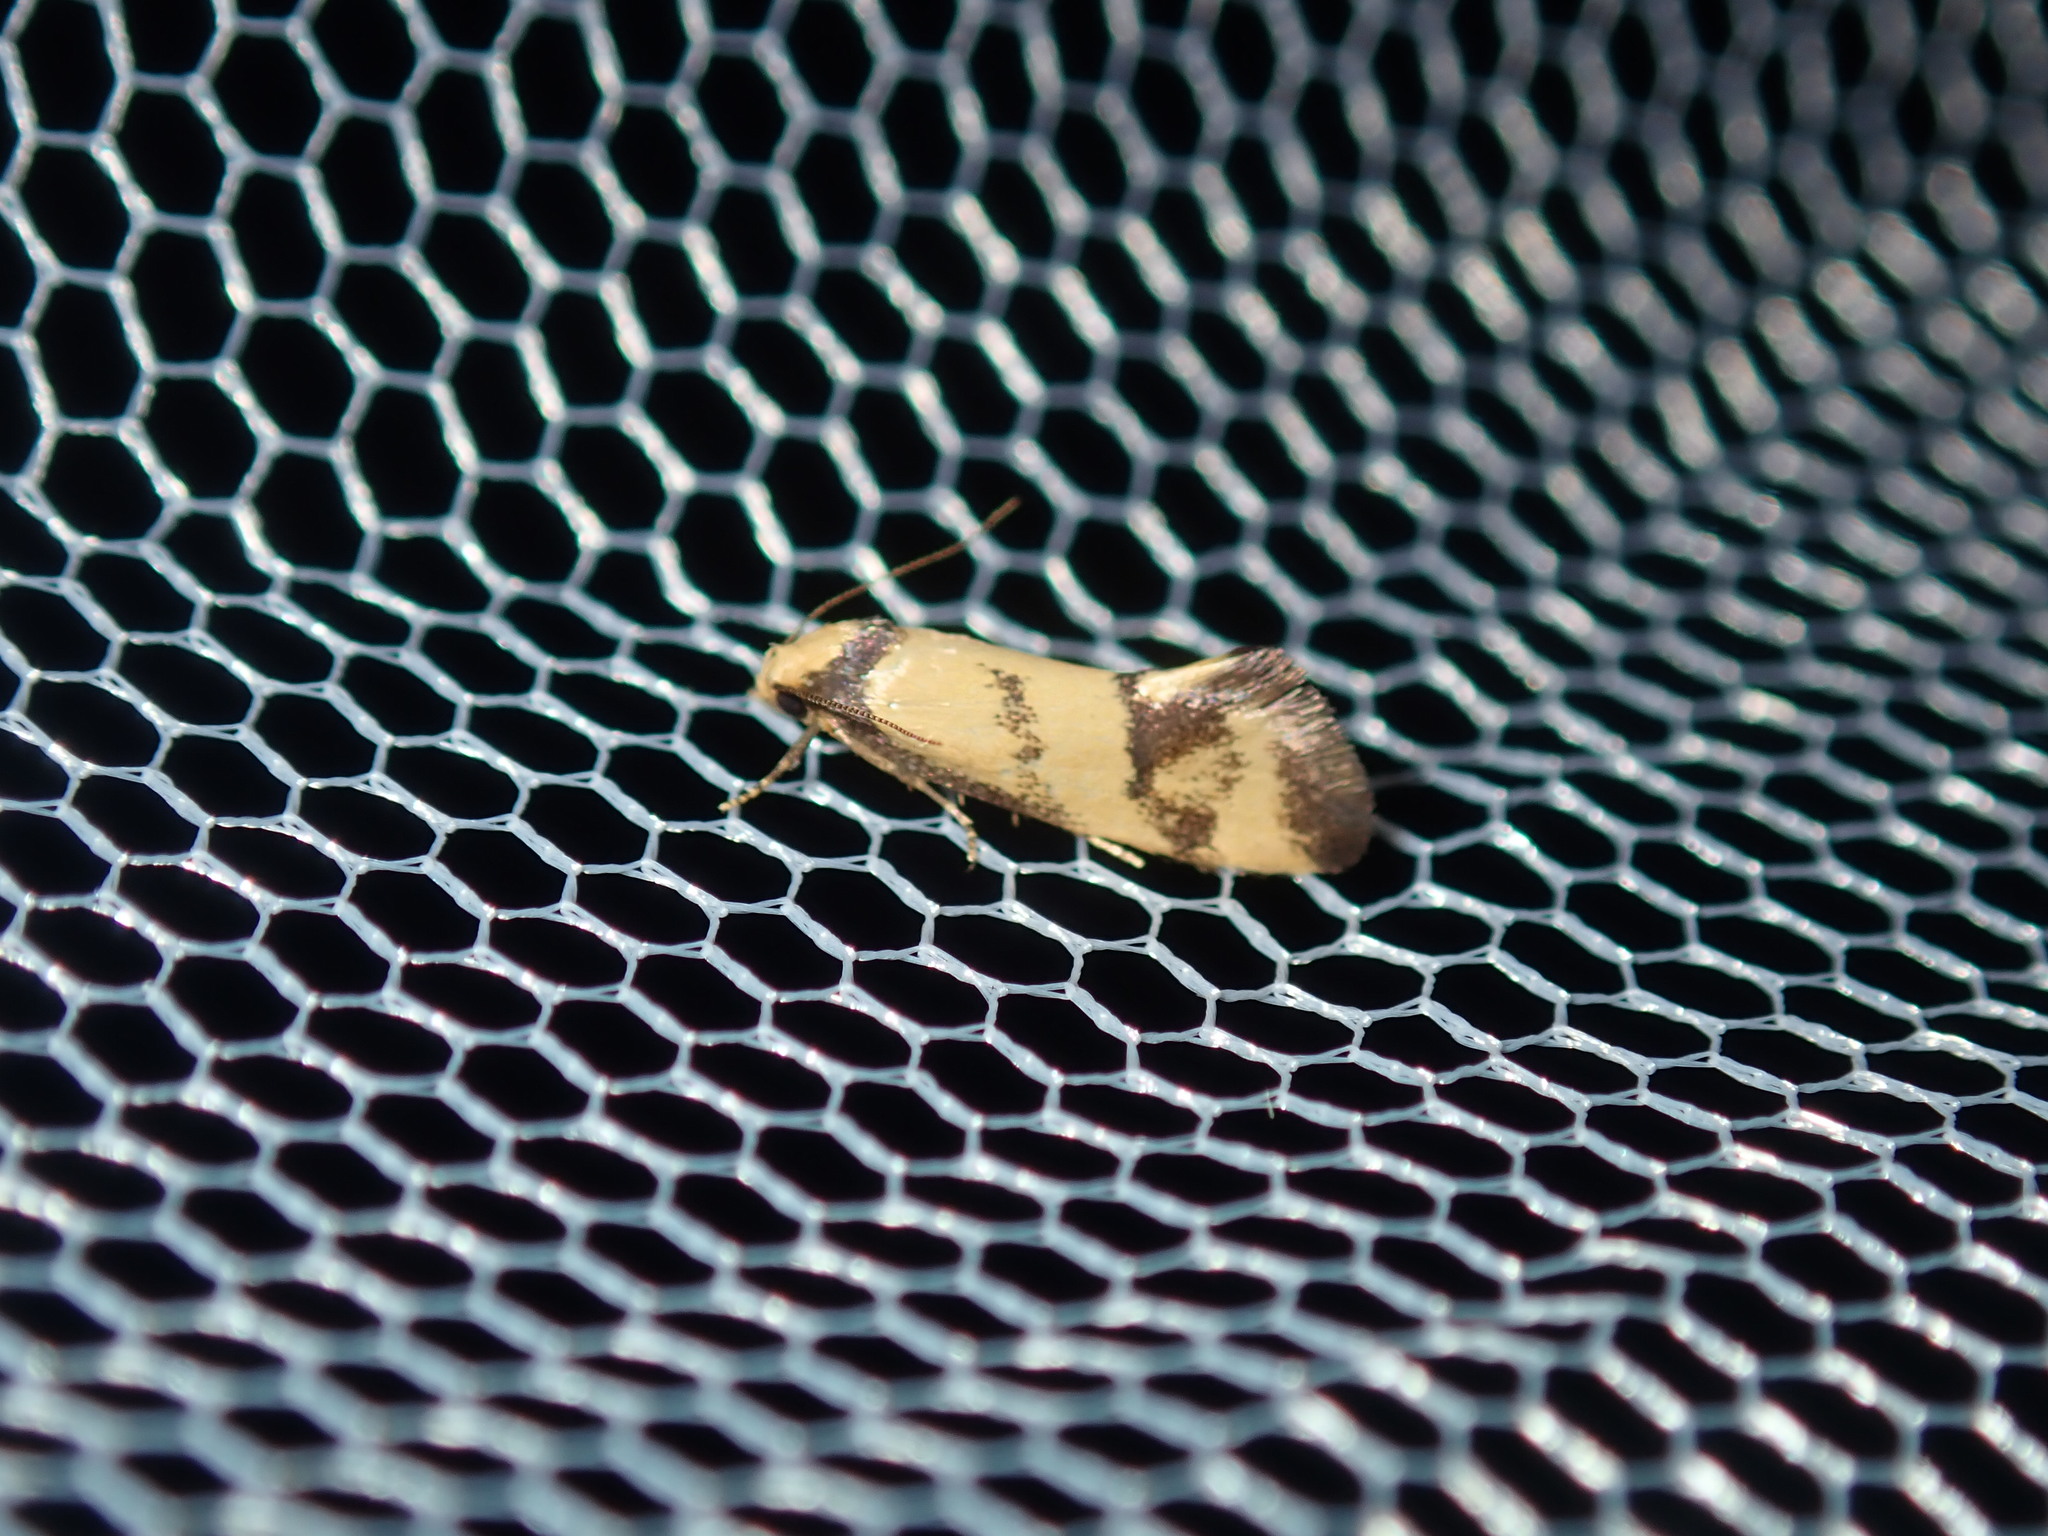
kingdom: Animalia
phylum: Arthropoda
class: Insecta
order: Lepidoptera
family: Oecophoridae
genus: Olbonoma
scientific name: Olbonoma triptycha
